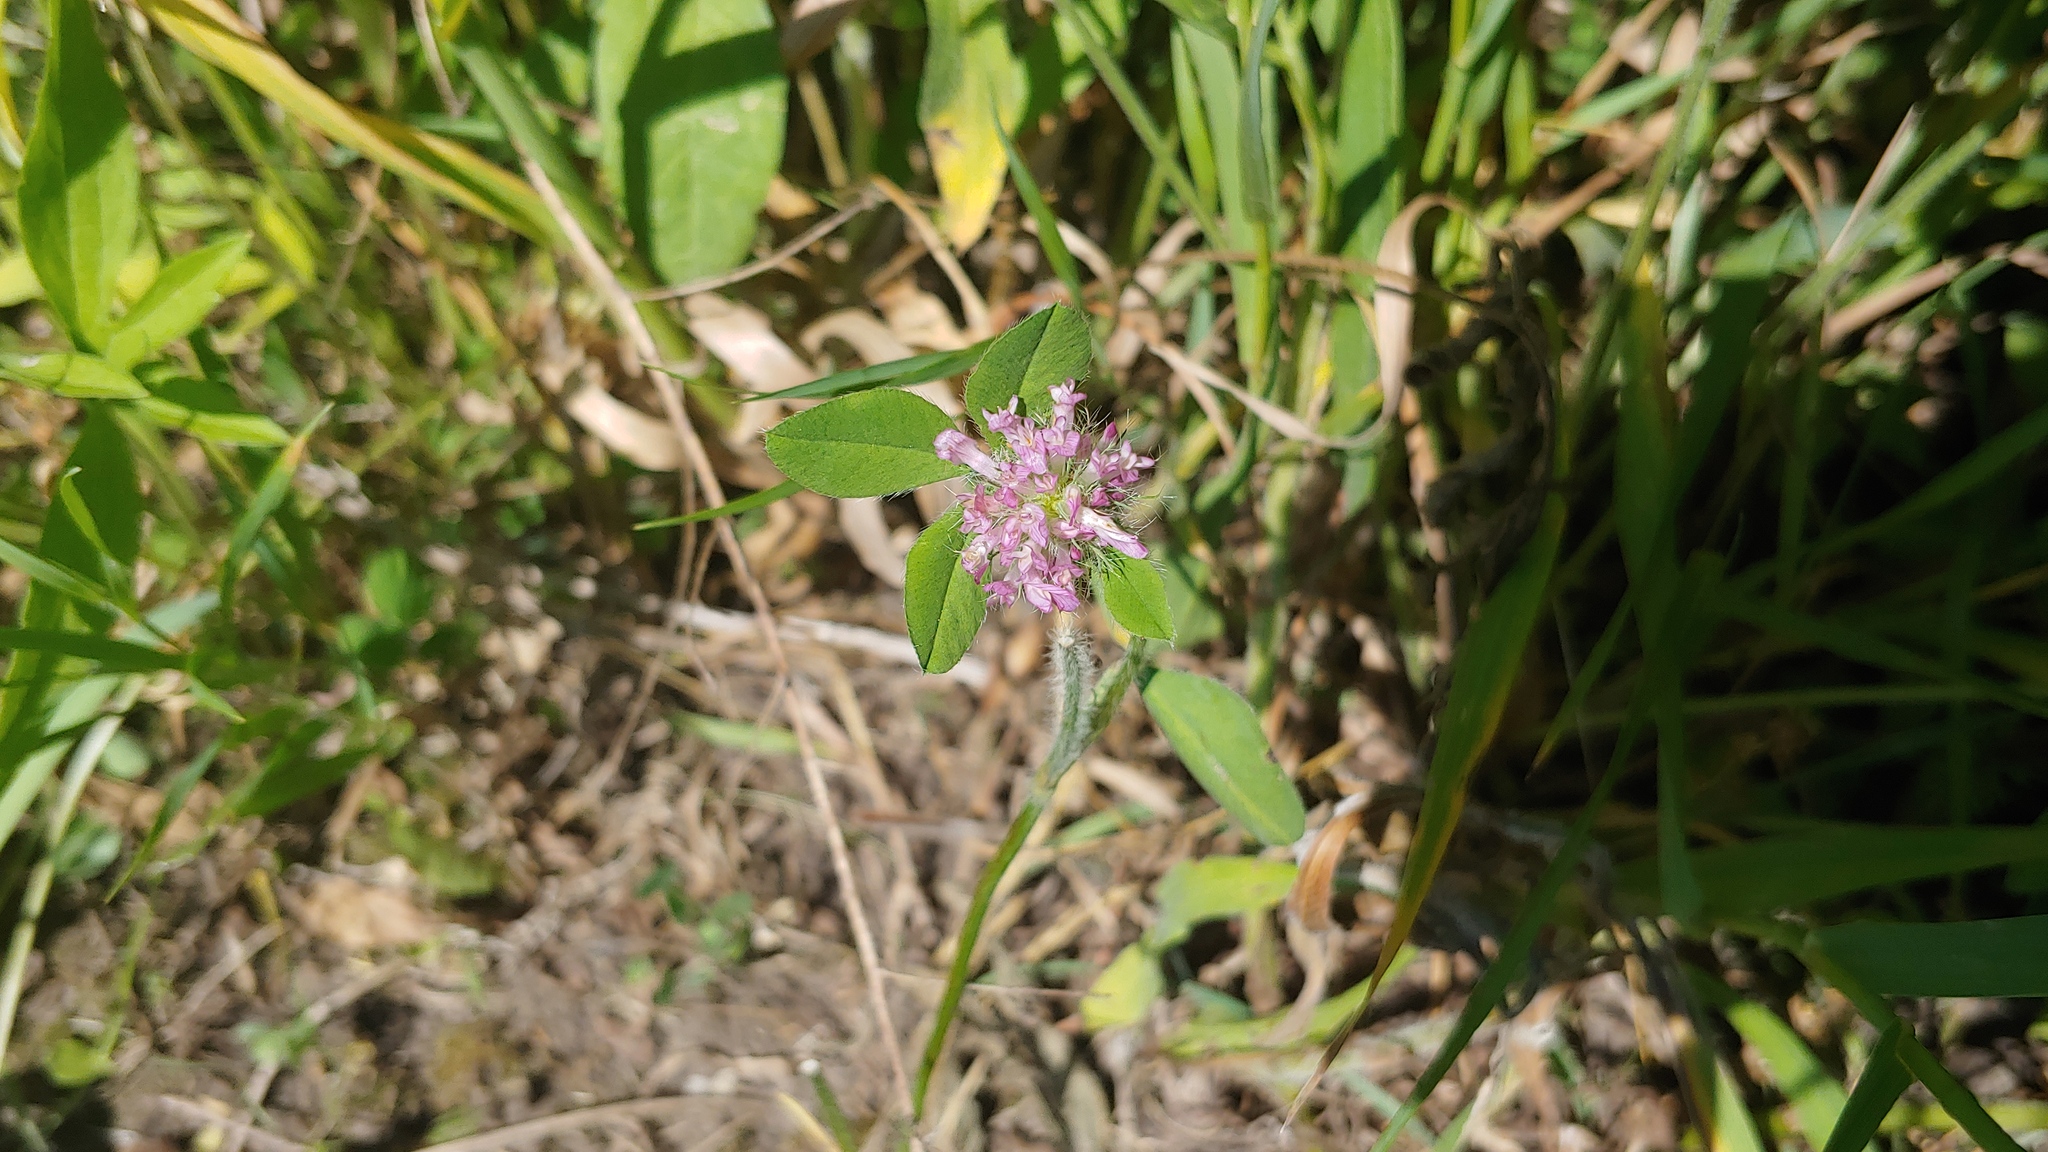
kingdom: Plantae
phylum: Tracheophyta
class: Magnoliopsida
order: Fabales
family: Fabaceae
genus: Trifolium
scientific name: Trifolium pratense
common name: Red clover
